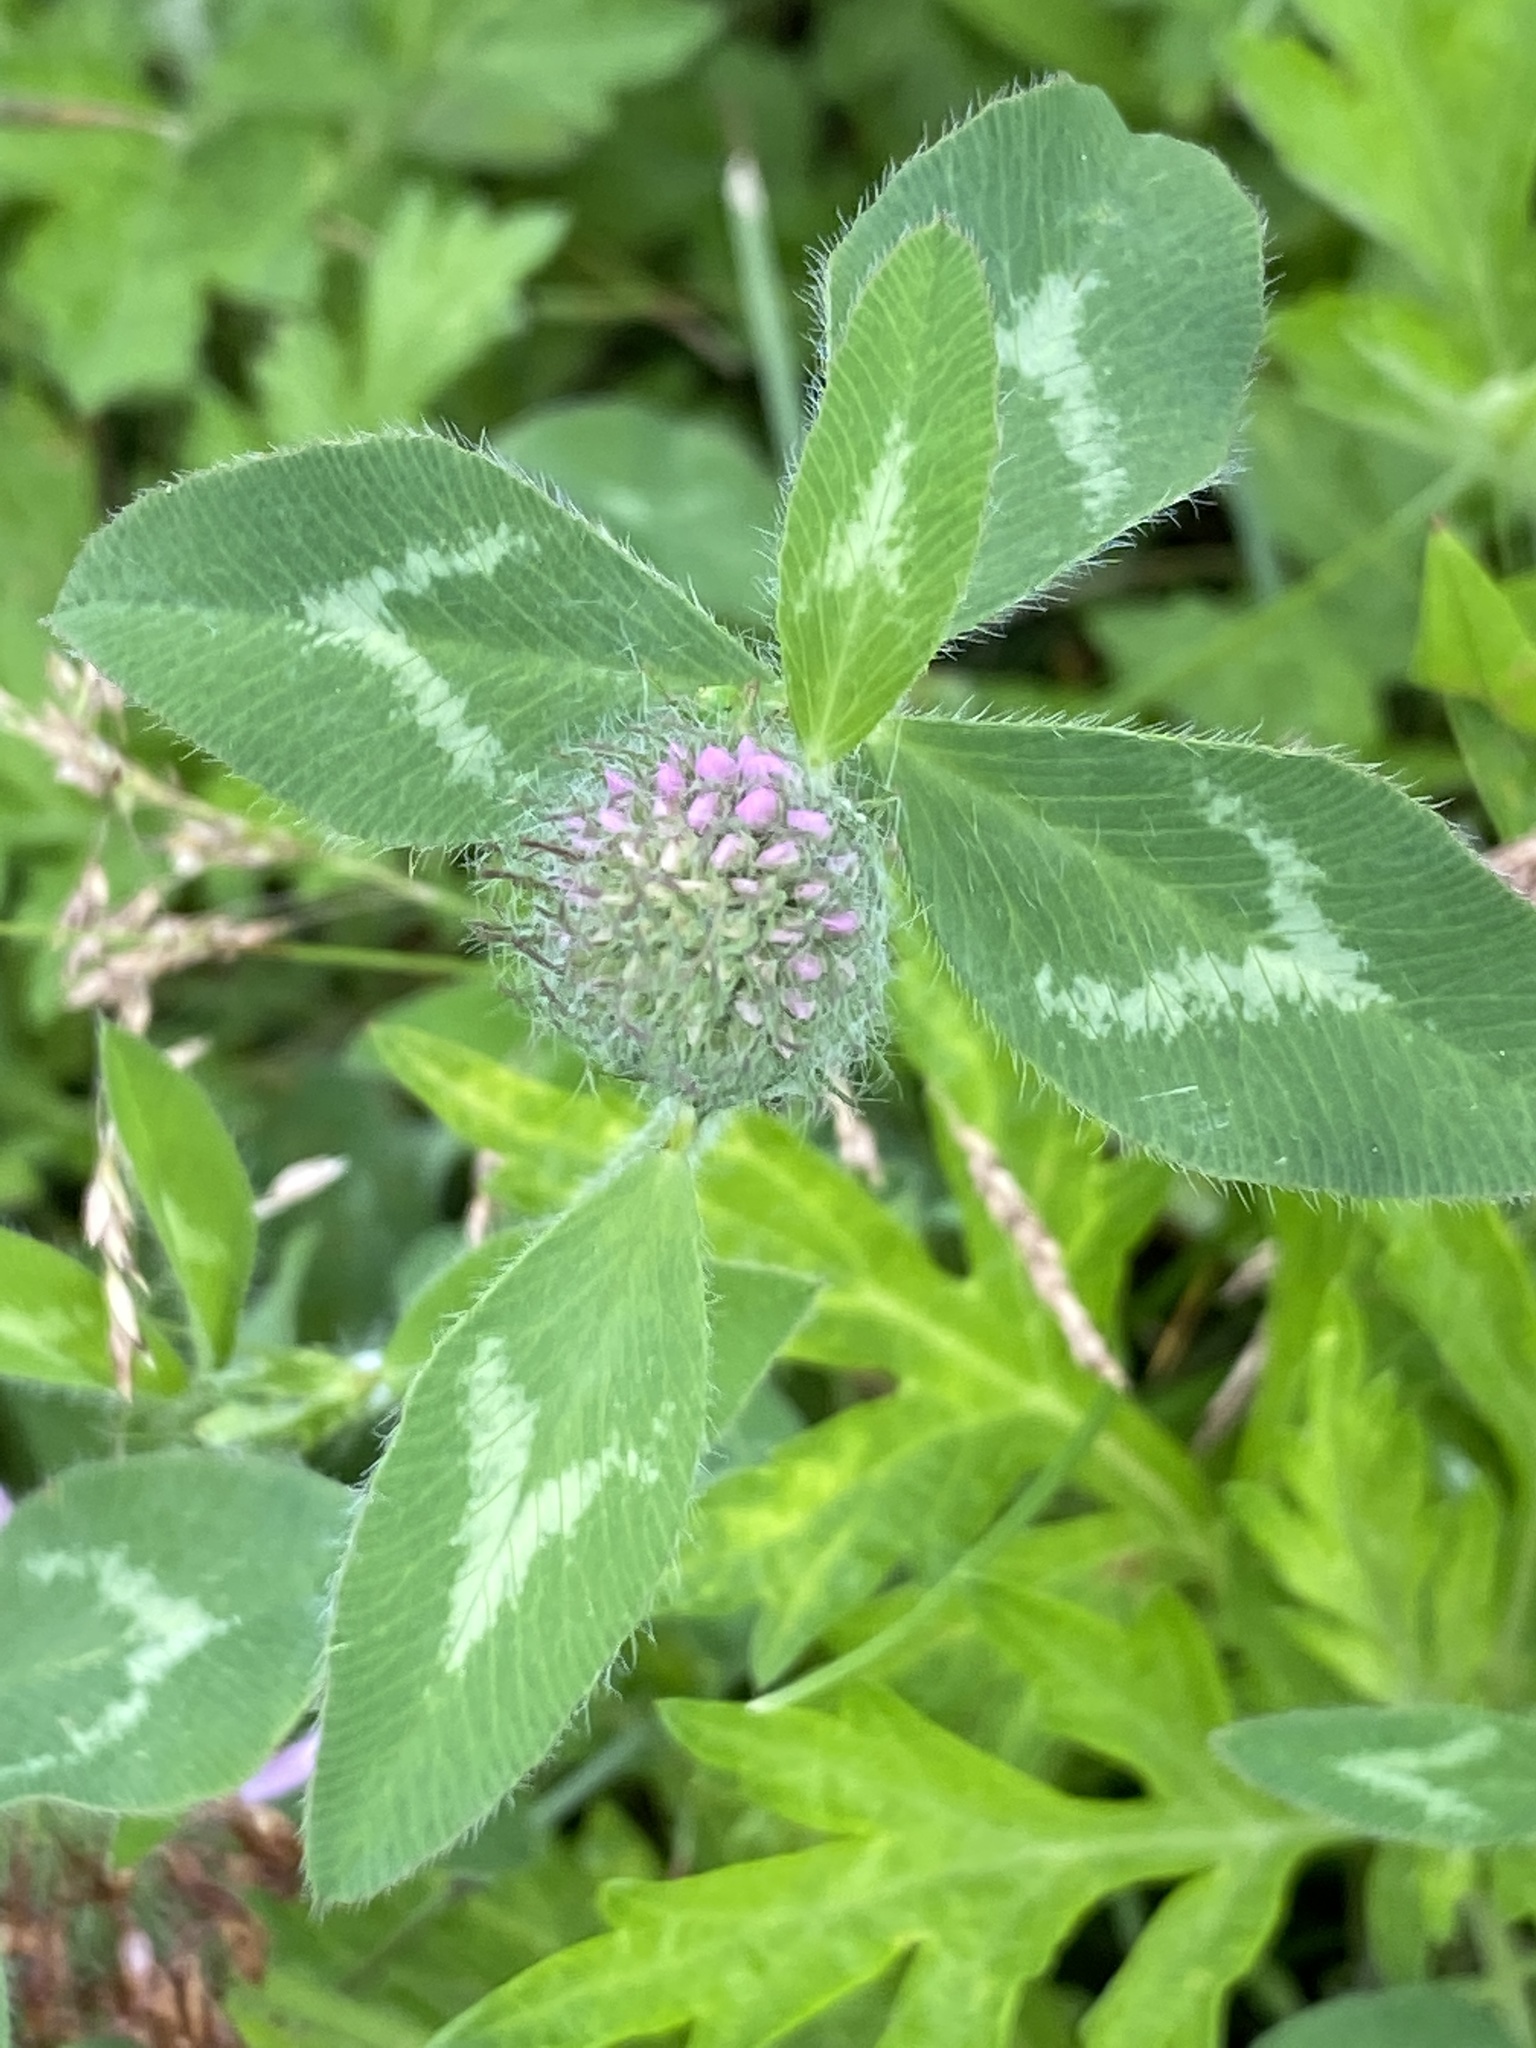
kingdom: Plantae
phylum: Tracheophyta
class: Magnoliopsida
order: Fabales
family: Fabaceae
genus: Trifolium
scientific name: Trifolium pratense
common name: Red clover
